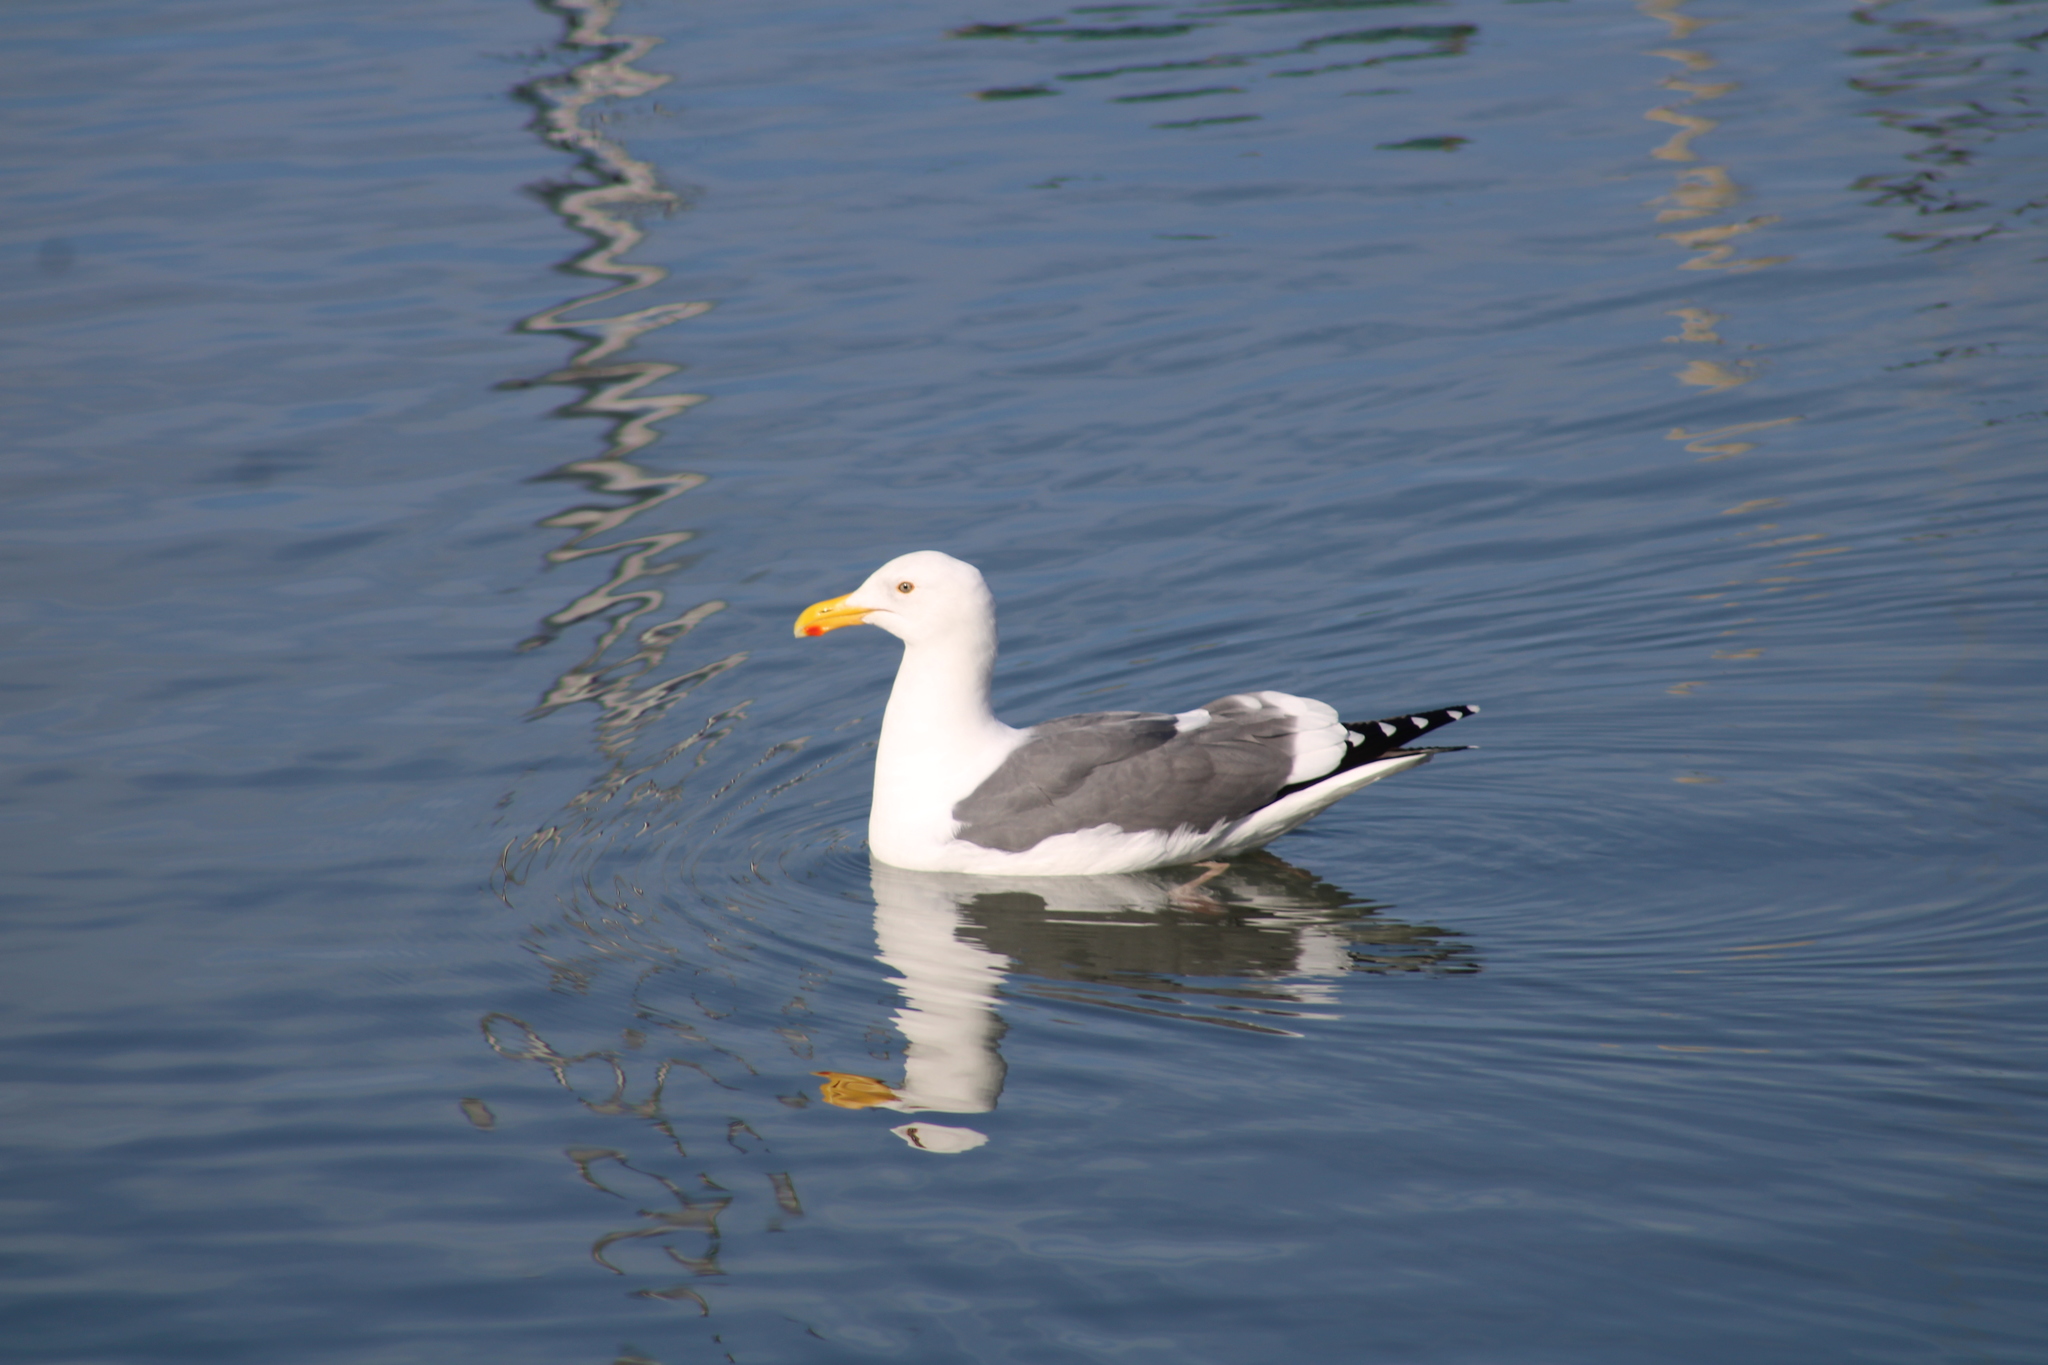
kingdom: Animalia
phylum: Chordata
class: Aves
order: Charadriiformes
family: Laridae
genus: Larus
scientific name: Larus occidentalis
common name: Western gull
